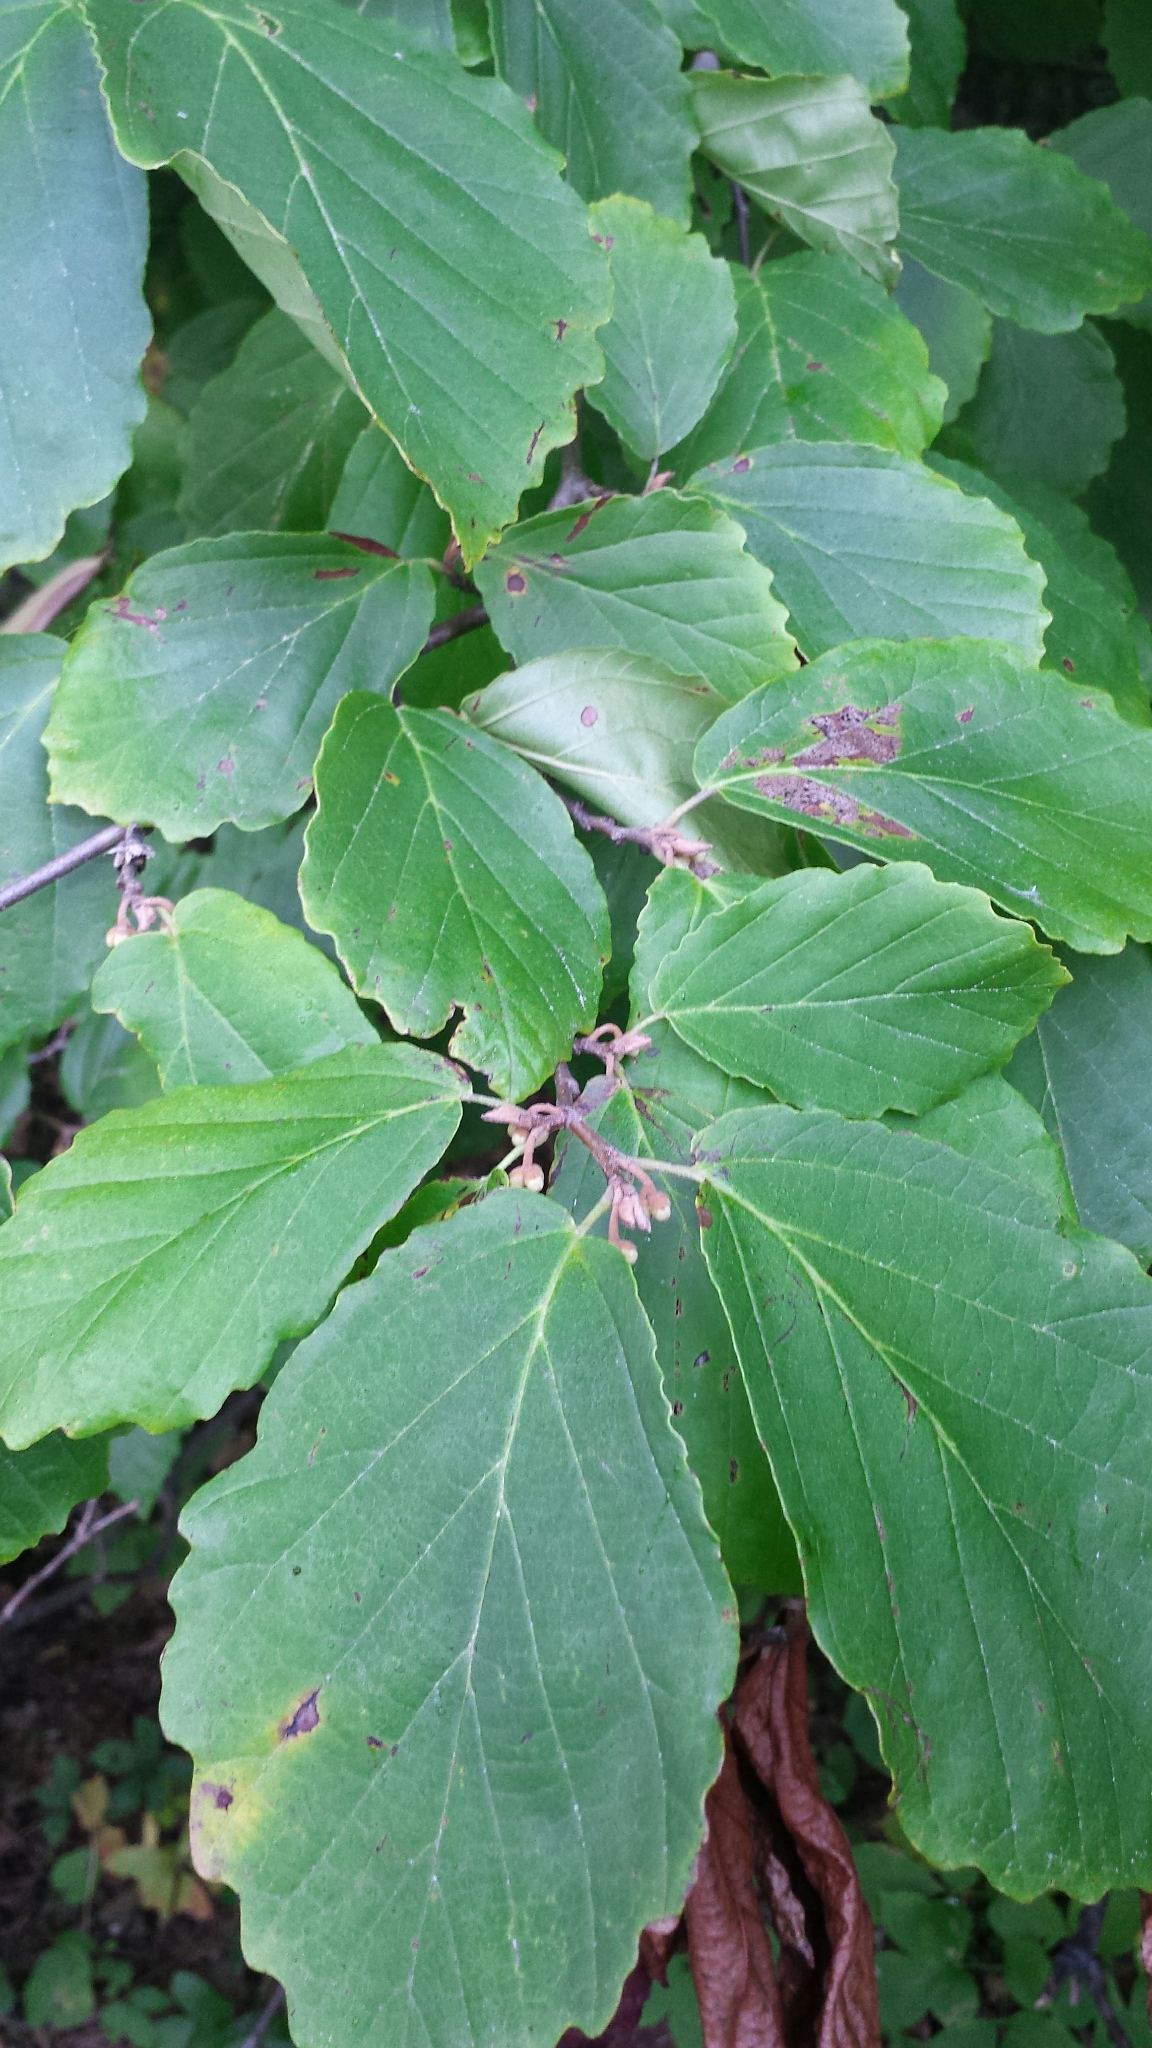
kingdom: Plantae
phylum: Tracheophyta
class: Magnoliopsida
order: Saxifragales
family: Hamamelidaceae
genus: Hamamelis
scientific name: Hamamelis virginiana
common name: Witch-hazel
